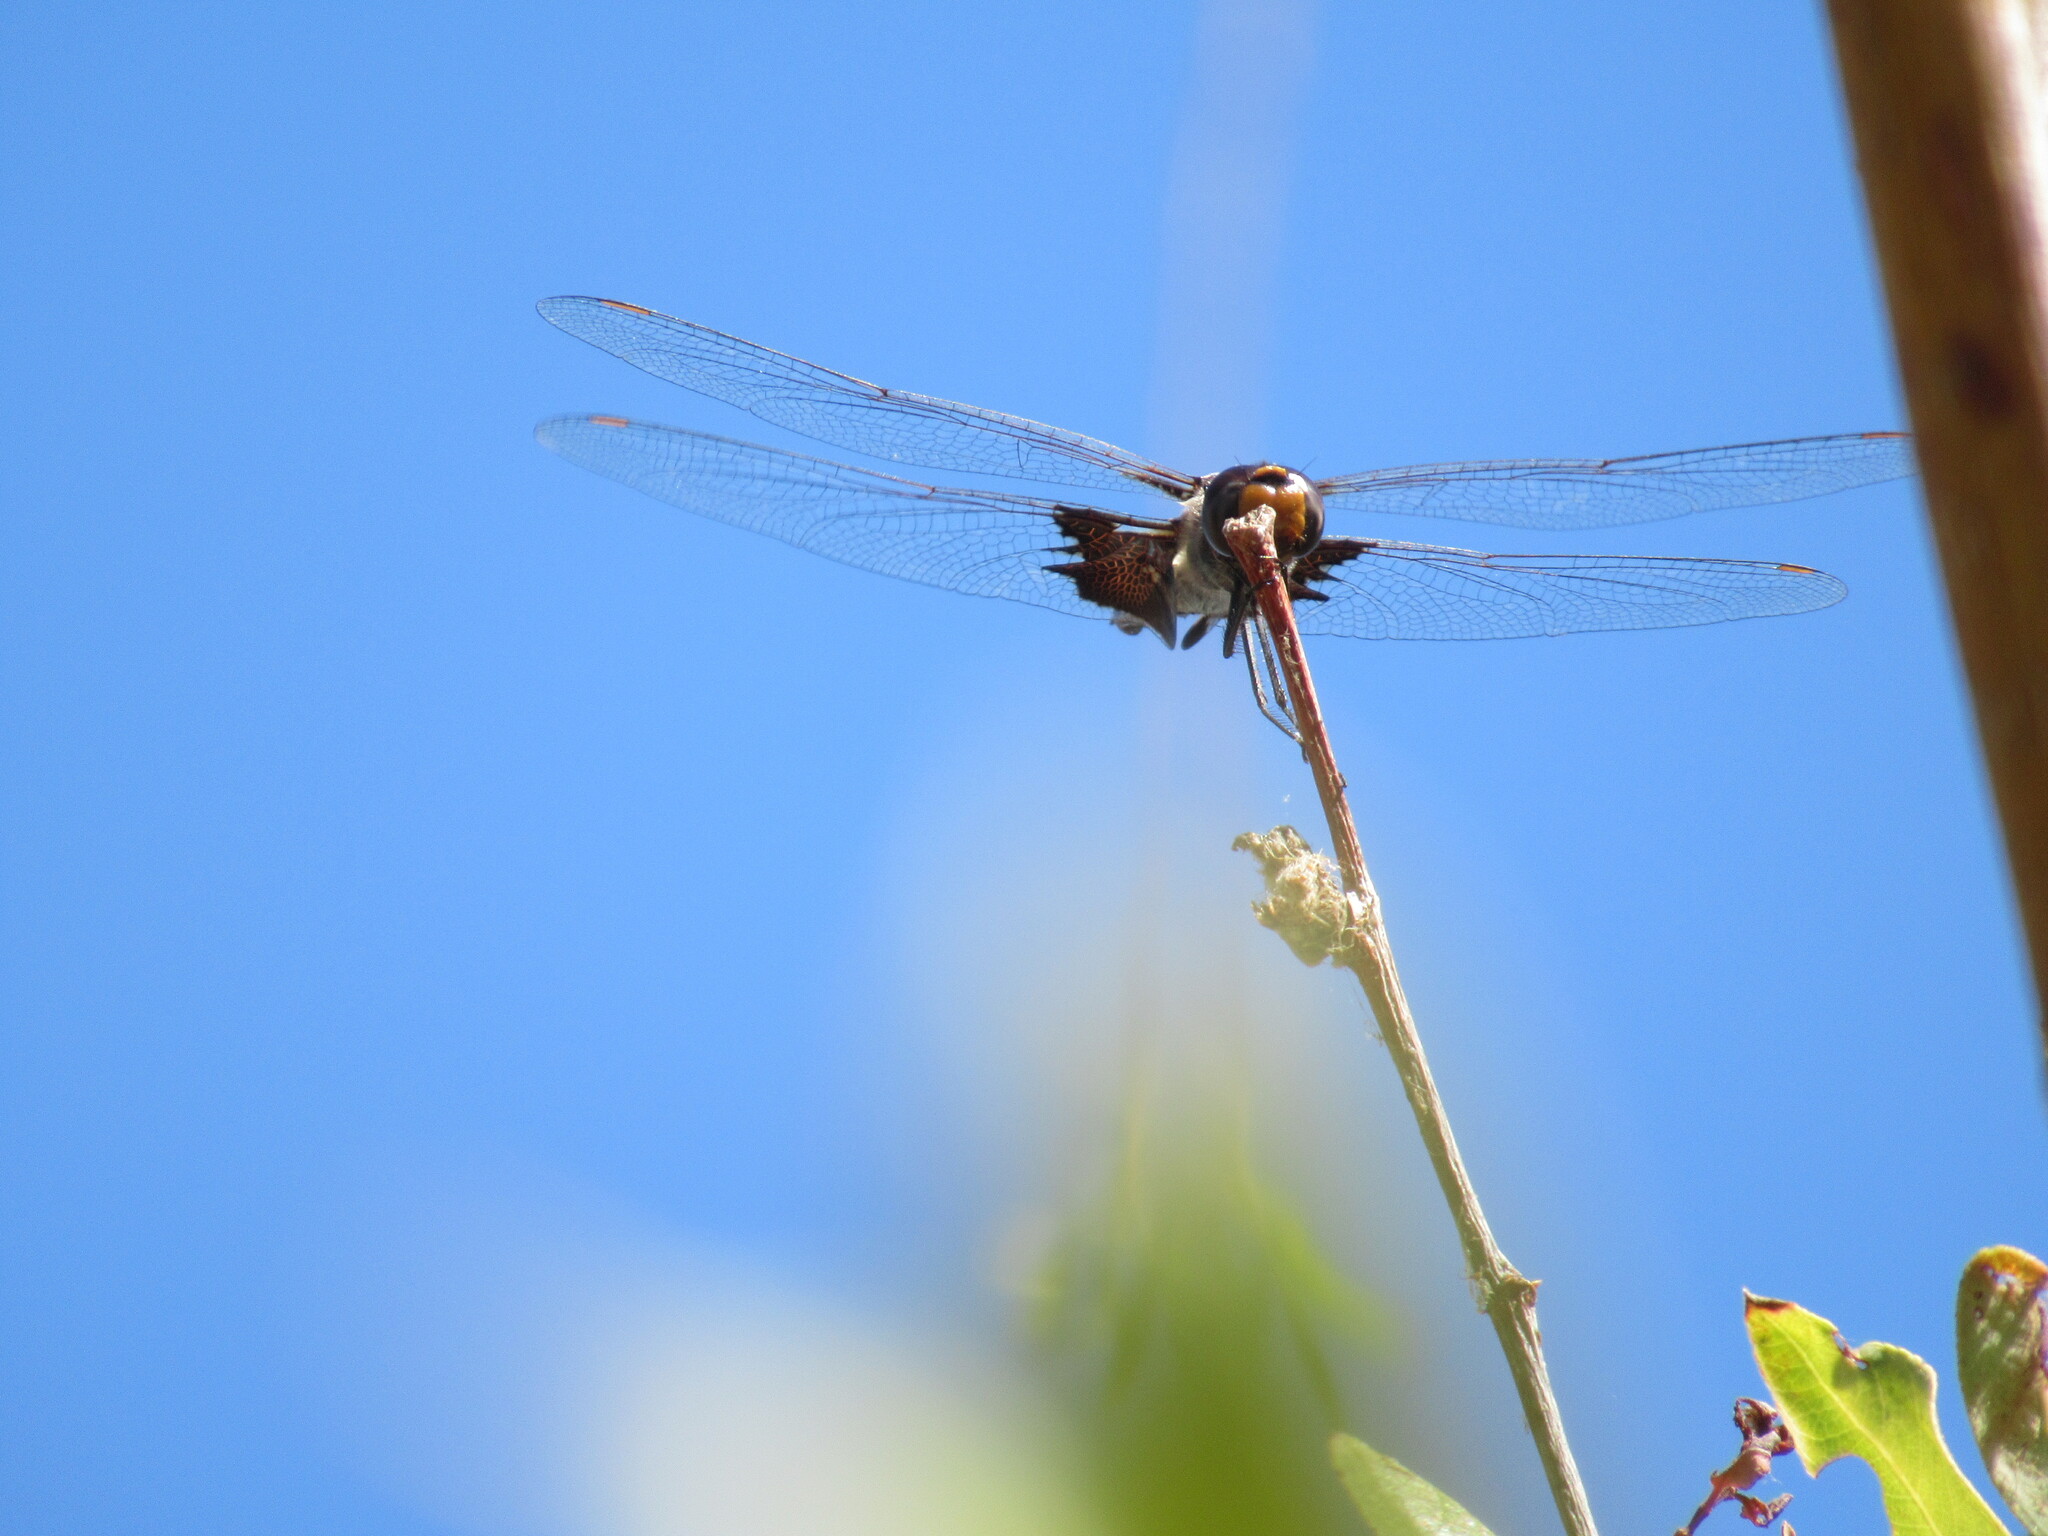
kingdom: Animalia
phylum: Arthropoda
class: Insecta
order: Odonata
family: Libellulidae
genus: Tramea
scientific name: Tramea lacerata
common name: Black saddlebags
